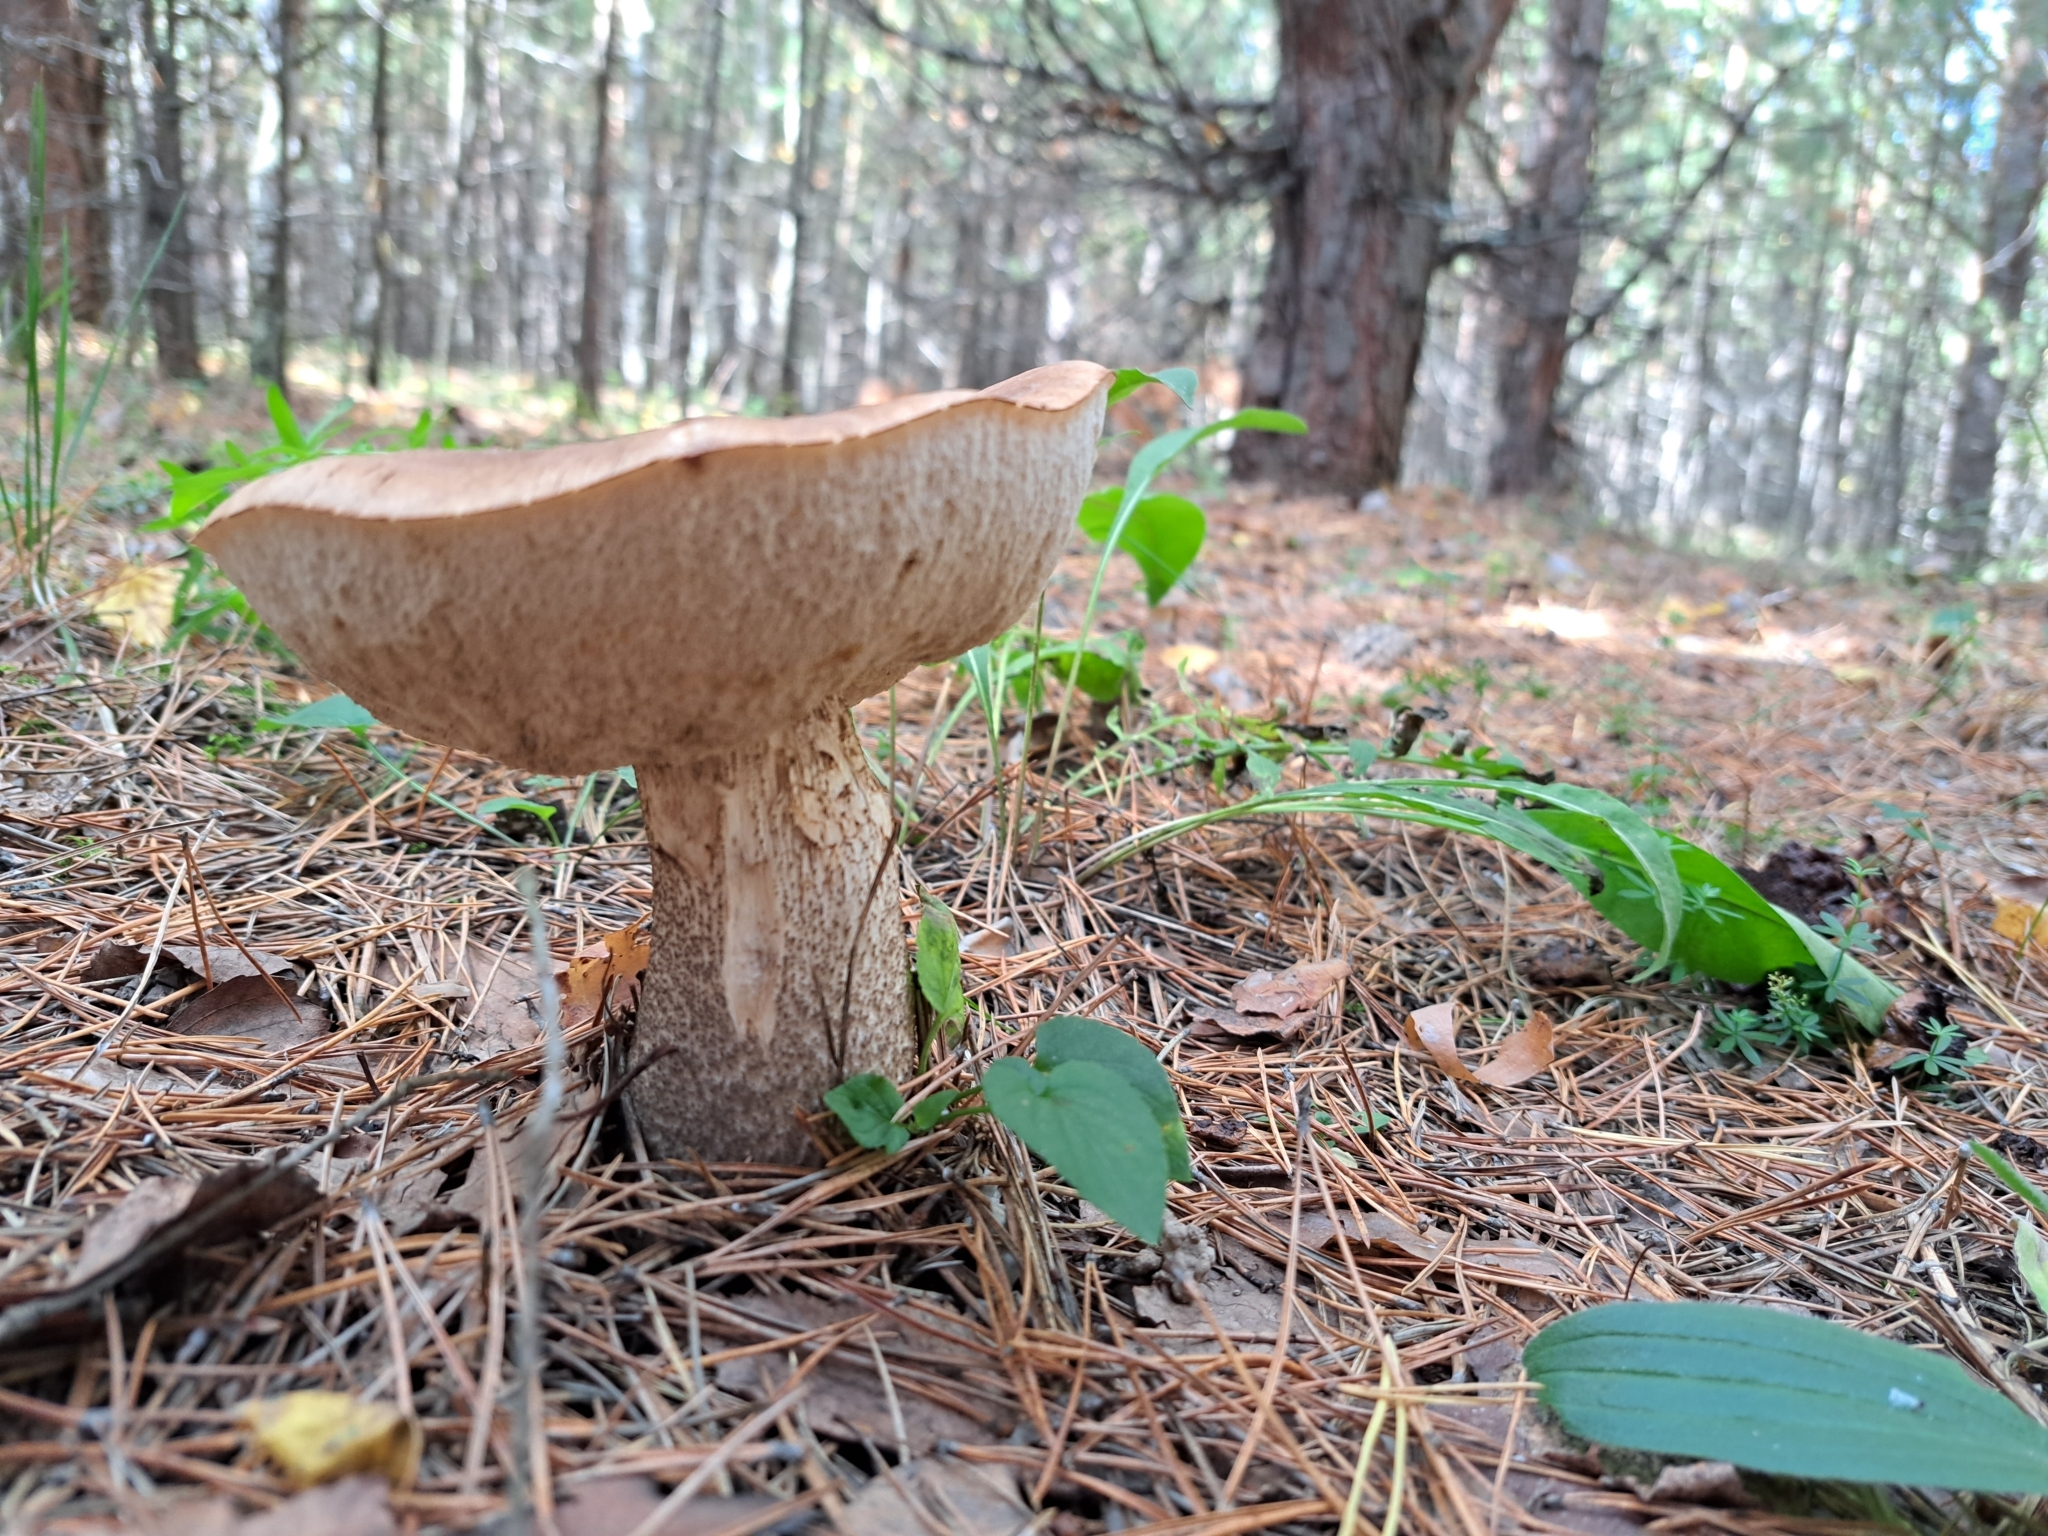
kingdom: Fungi
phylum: Basidiomycota
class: Agaricomycetes
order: Boletales
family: Boletaceae
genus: Leccinum
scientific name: Leccinum scabrum
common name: Blushing bolete
